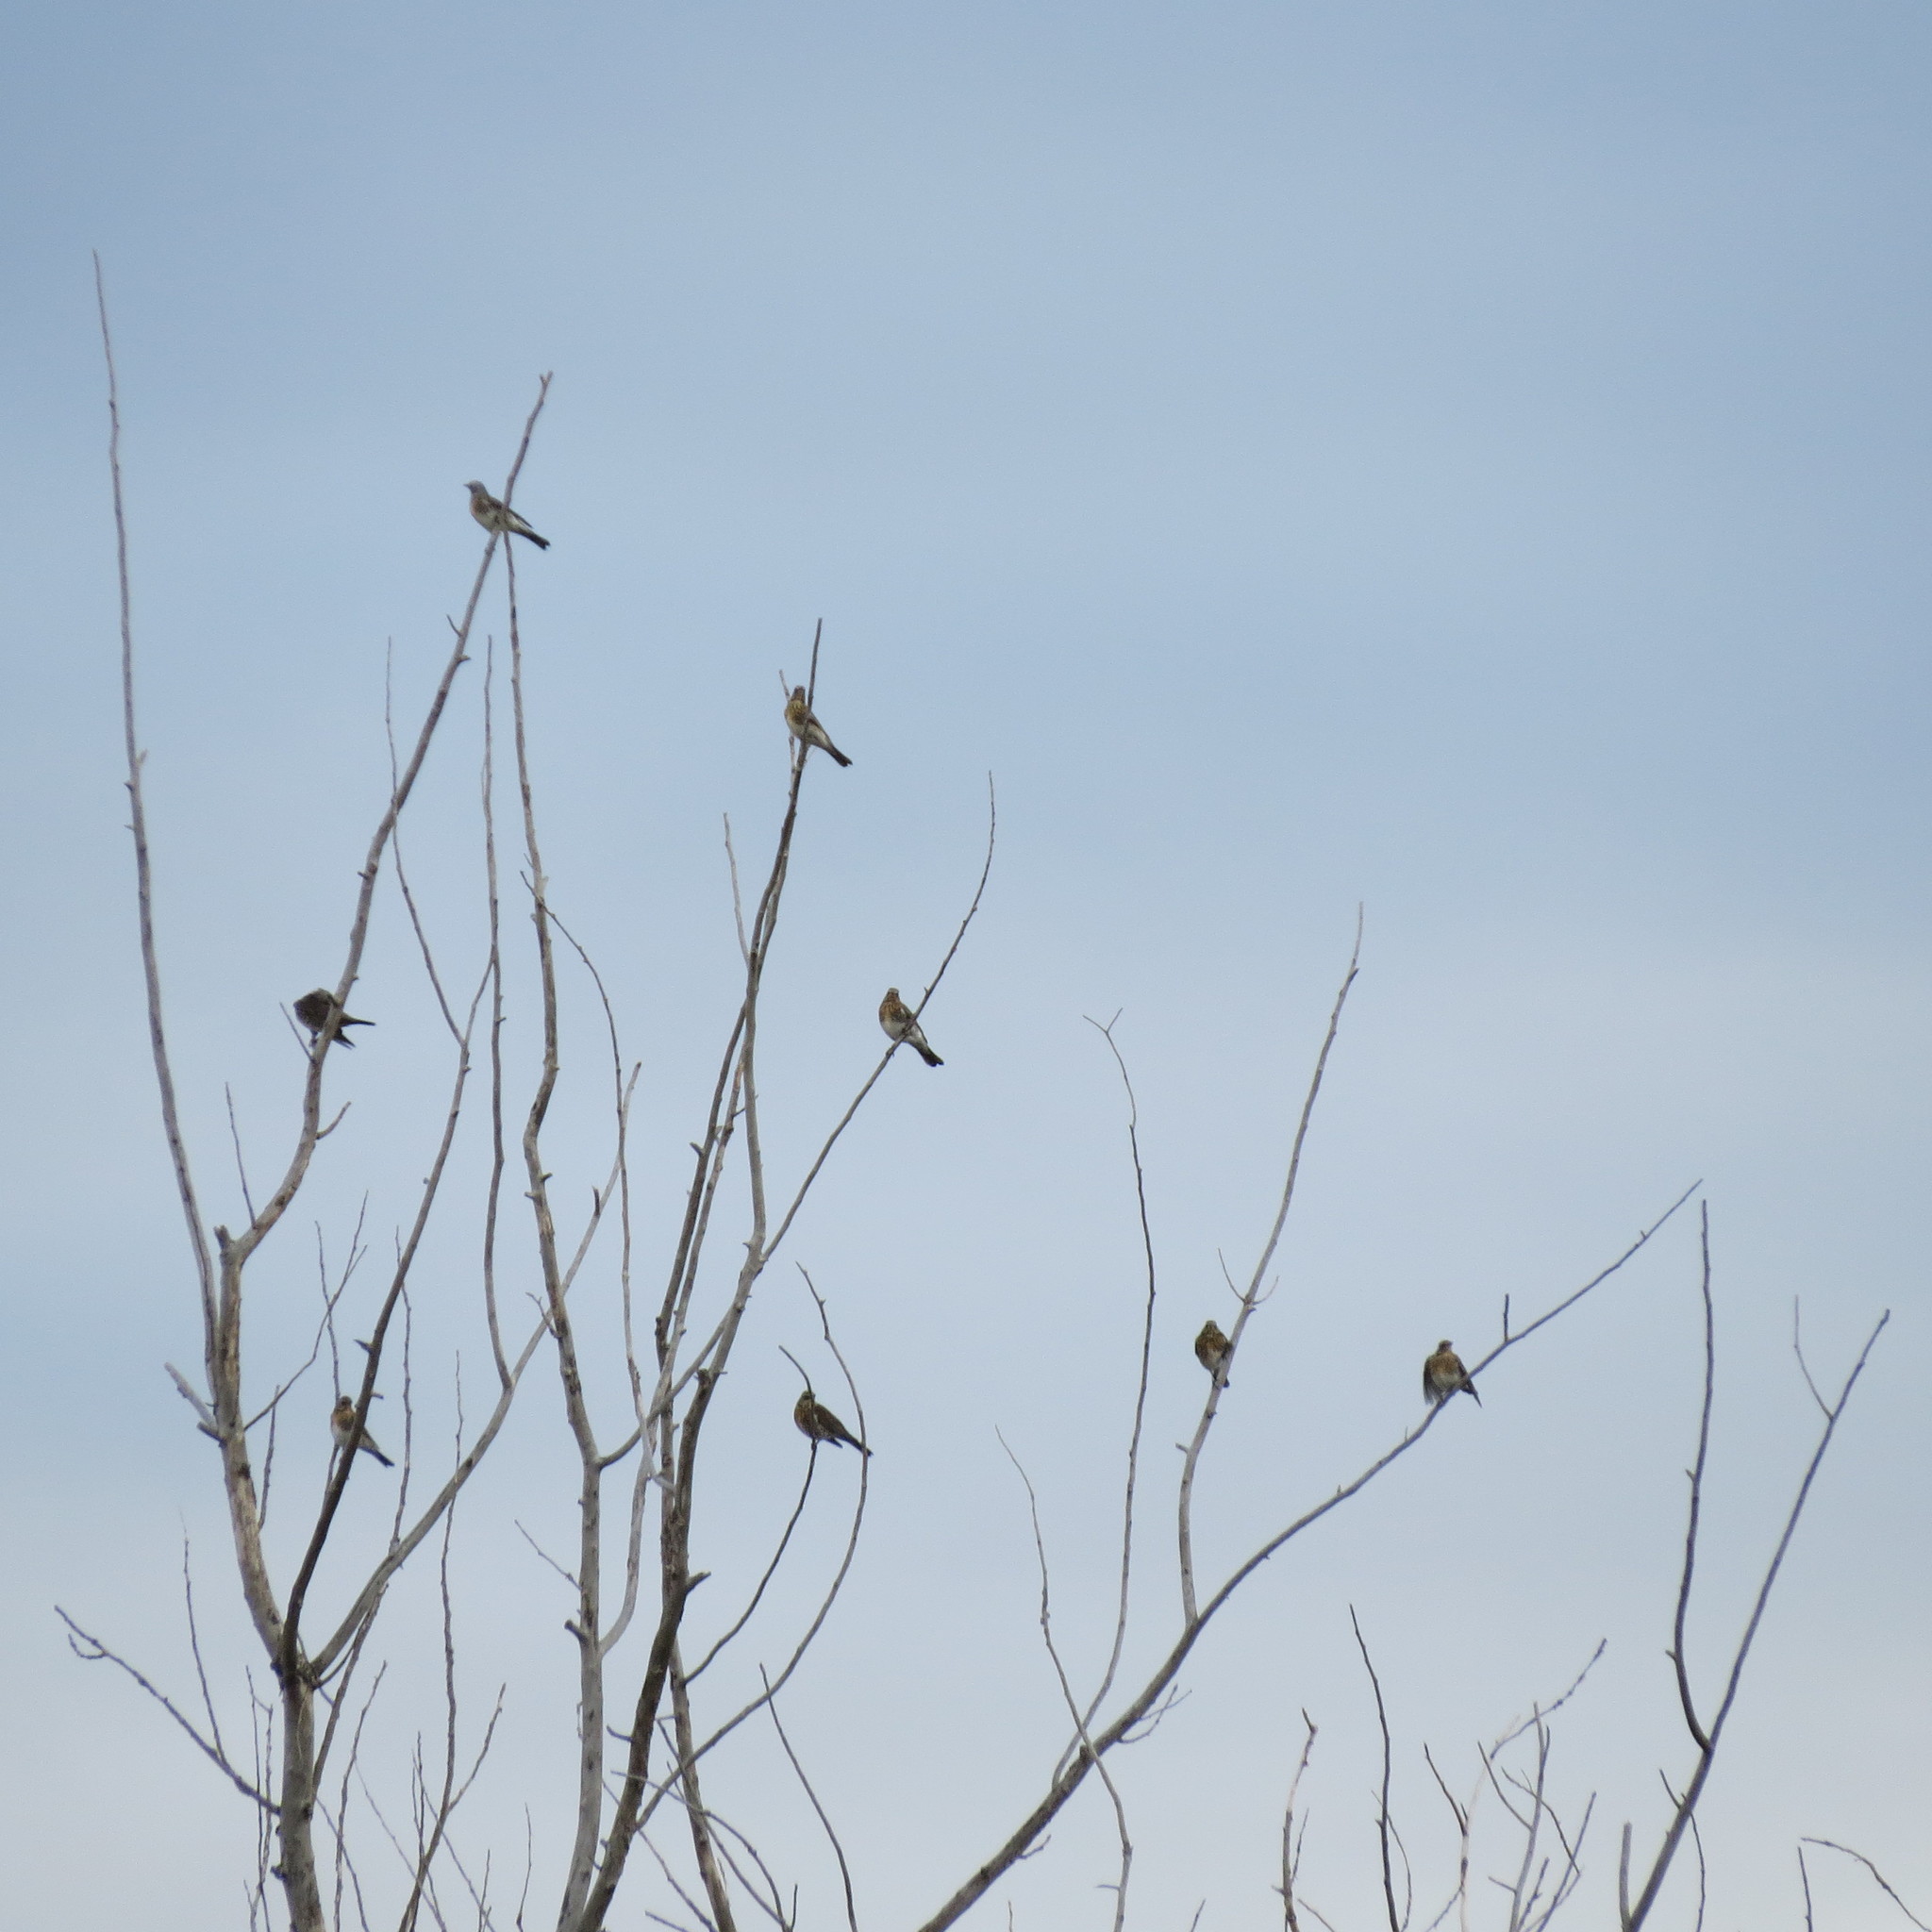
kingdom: Animalia
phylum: Chordata
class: Aves
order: Passeriformes
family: Turdidae
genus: Turdus
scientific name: Turdus pilaris
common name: Fieldfare
